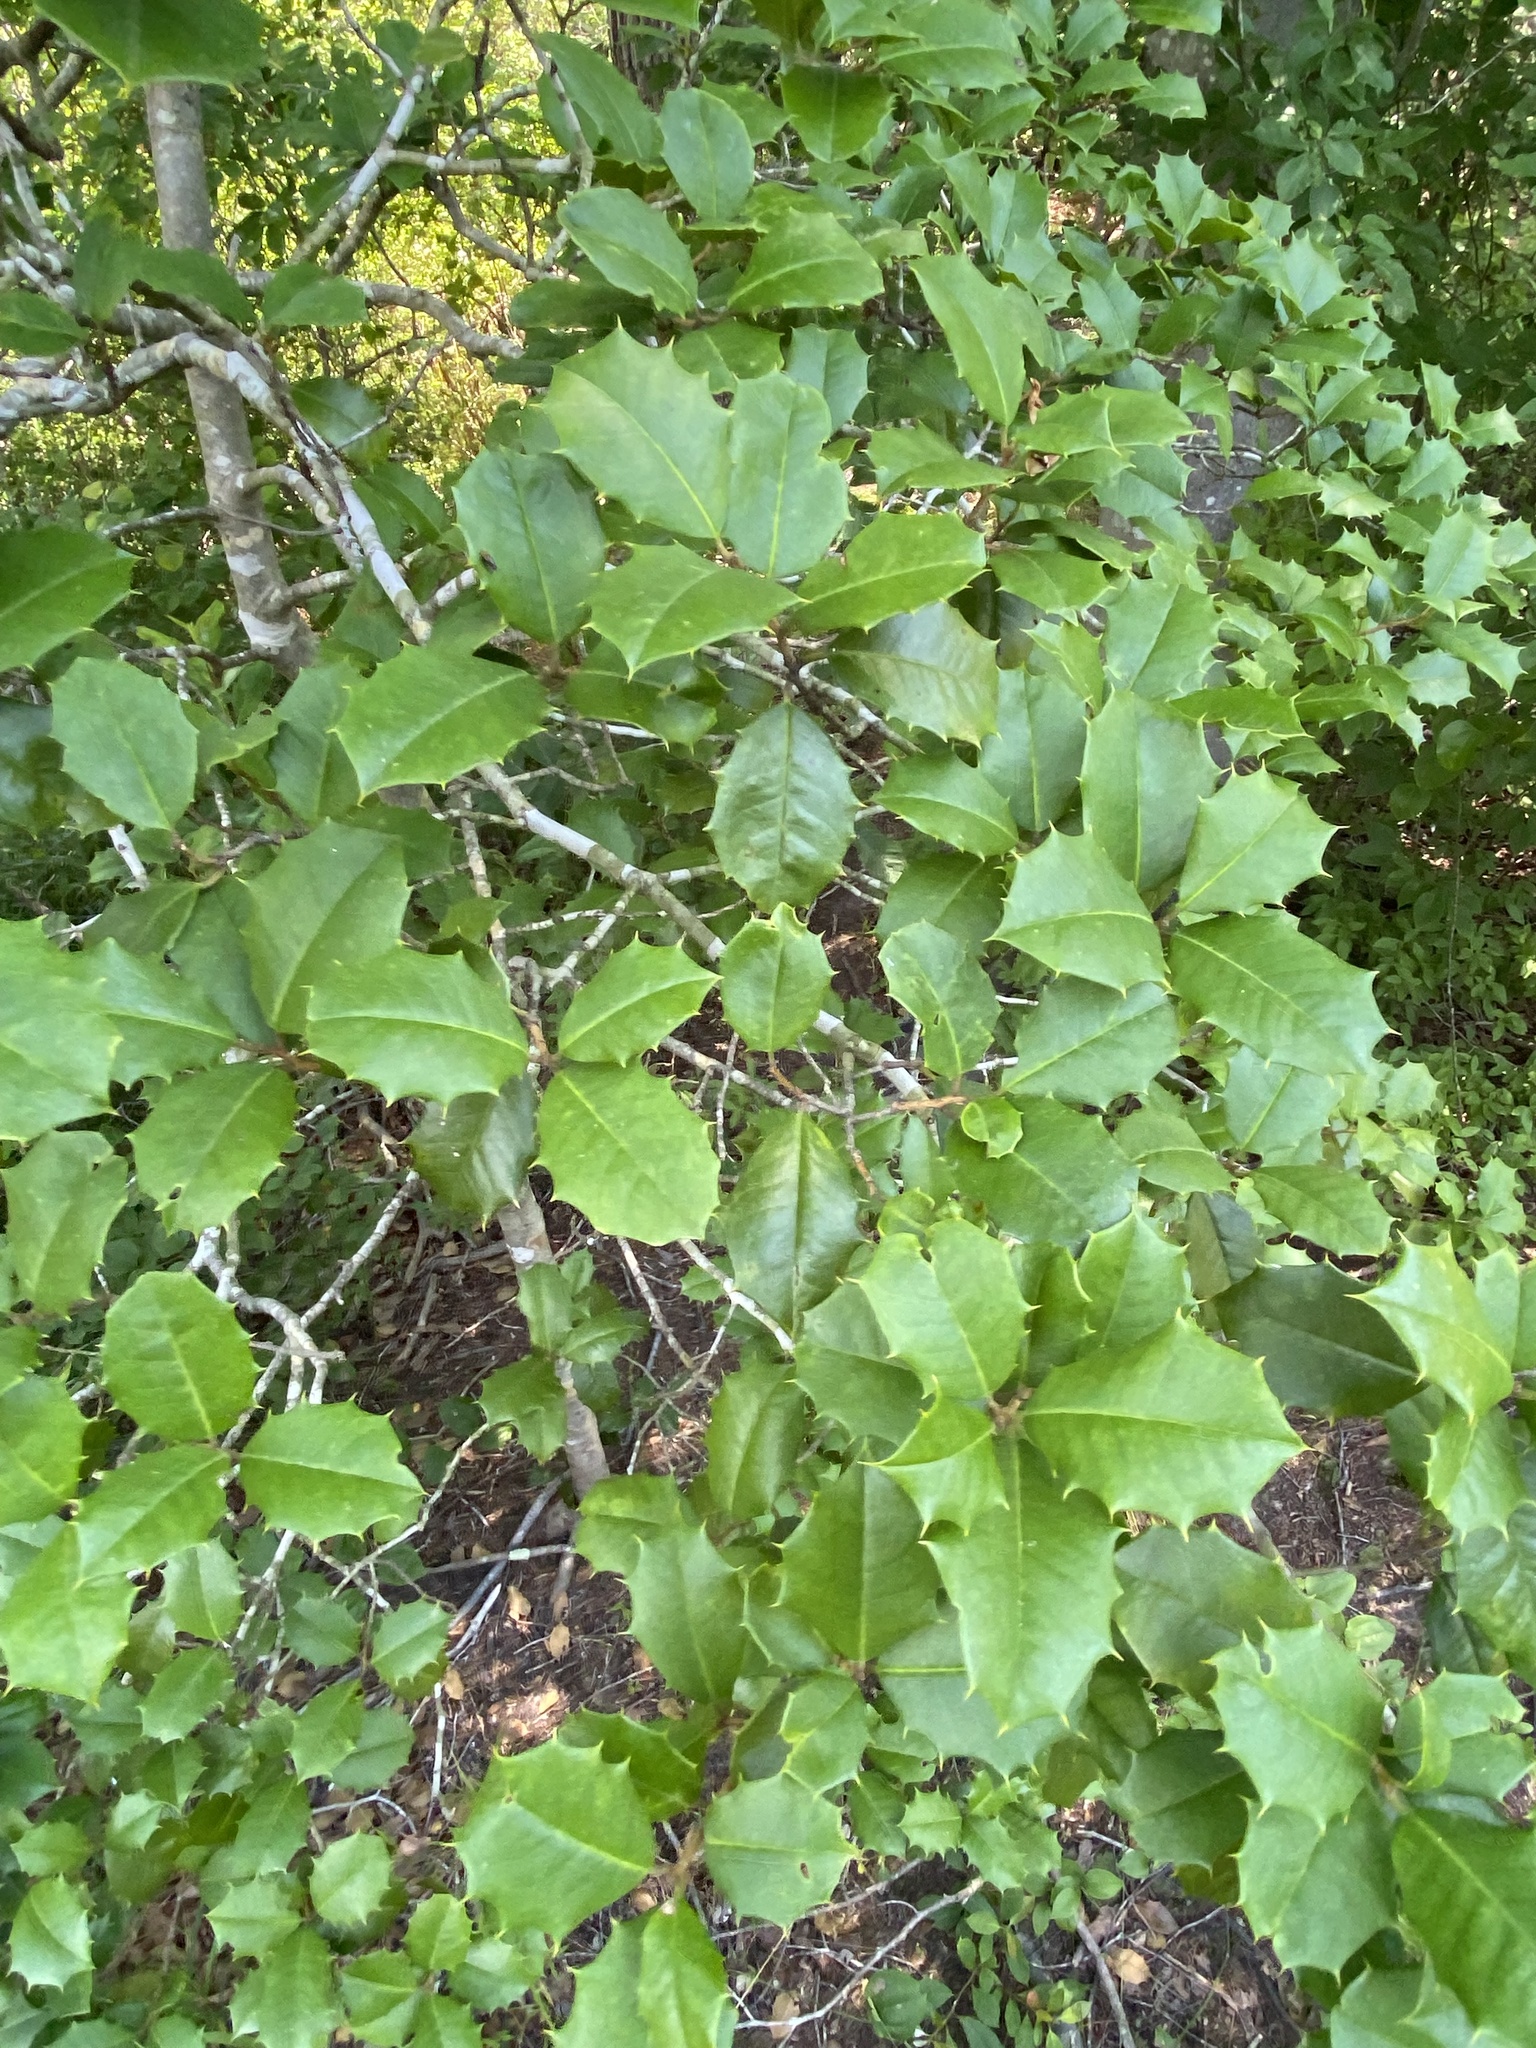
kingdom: Plantae
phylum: Tracheophyta
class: Magnoliopsida
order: Aquifoliales
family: Aquifoliaceae
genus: Ilex
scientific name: Ilex opaca
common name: American holly
